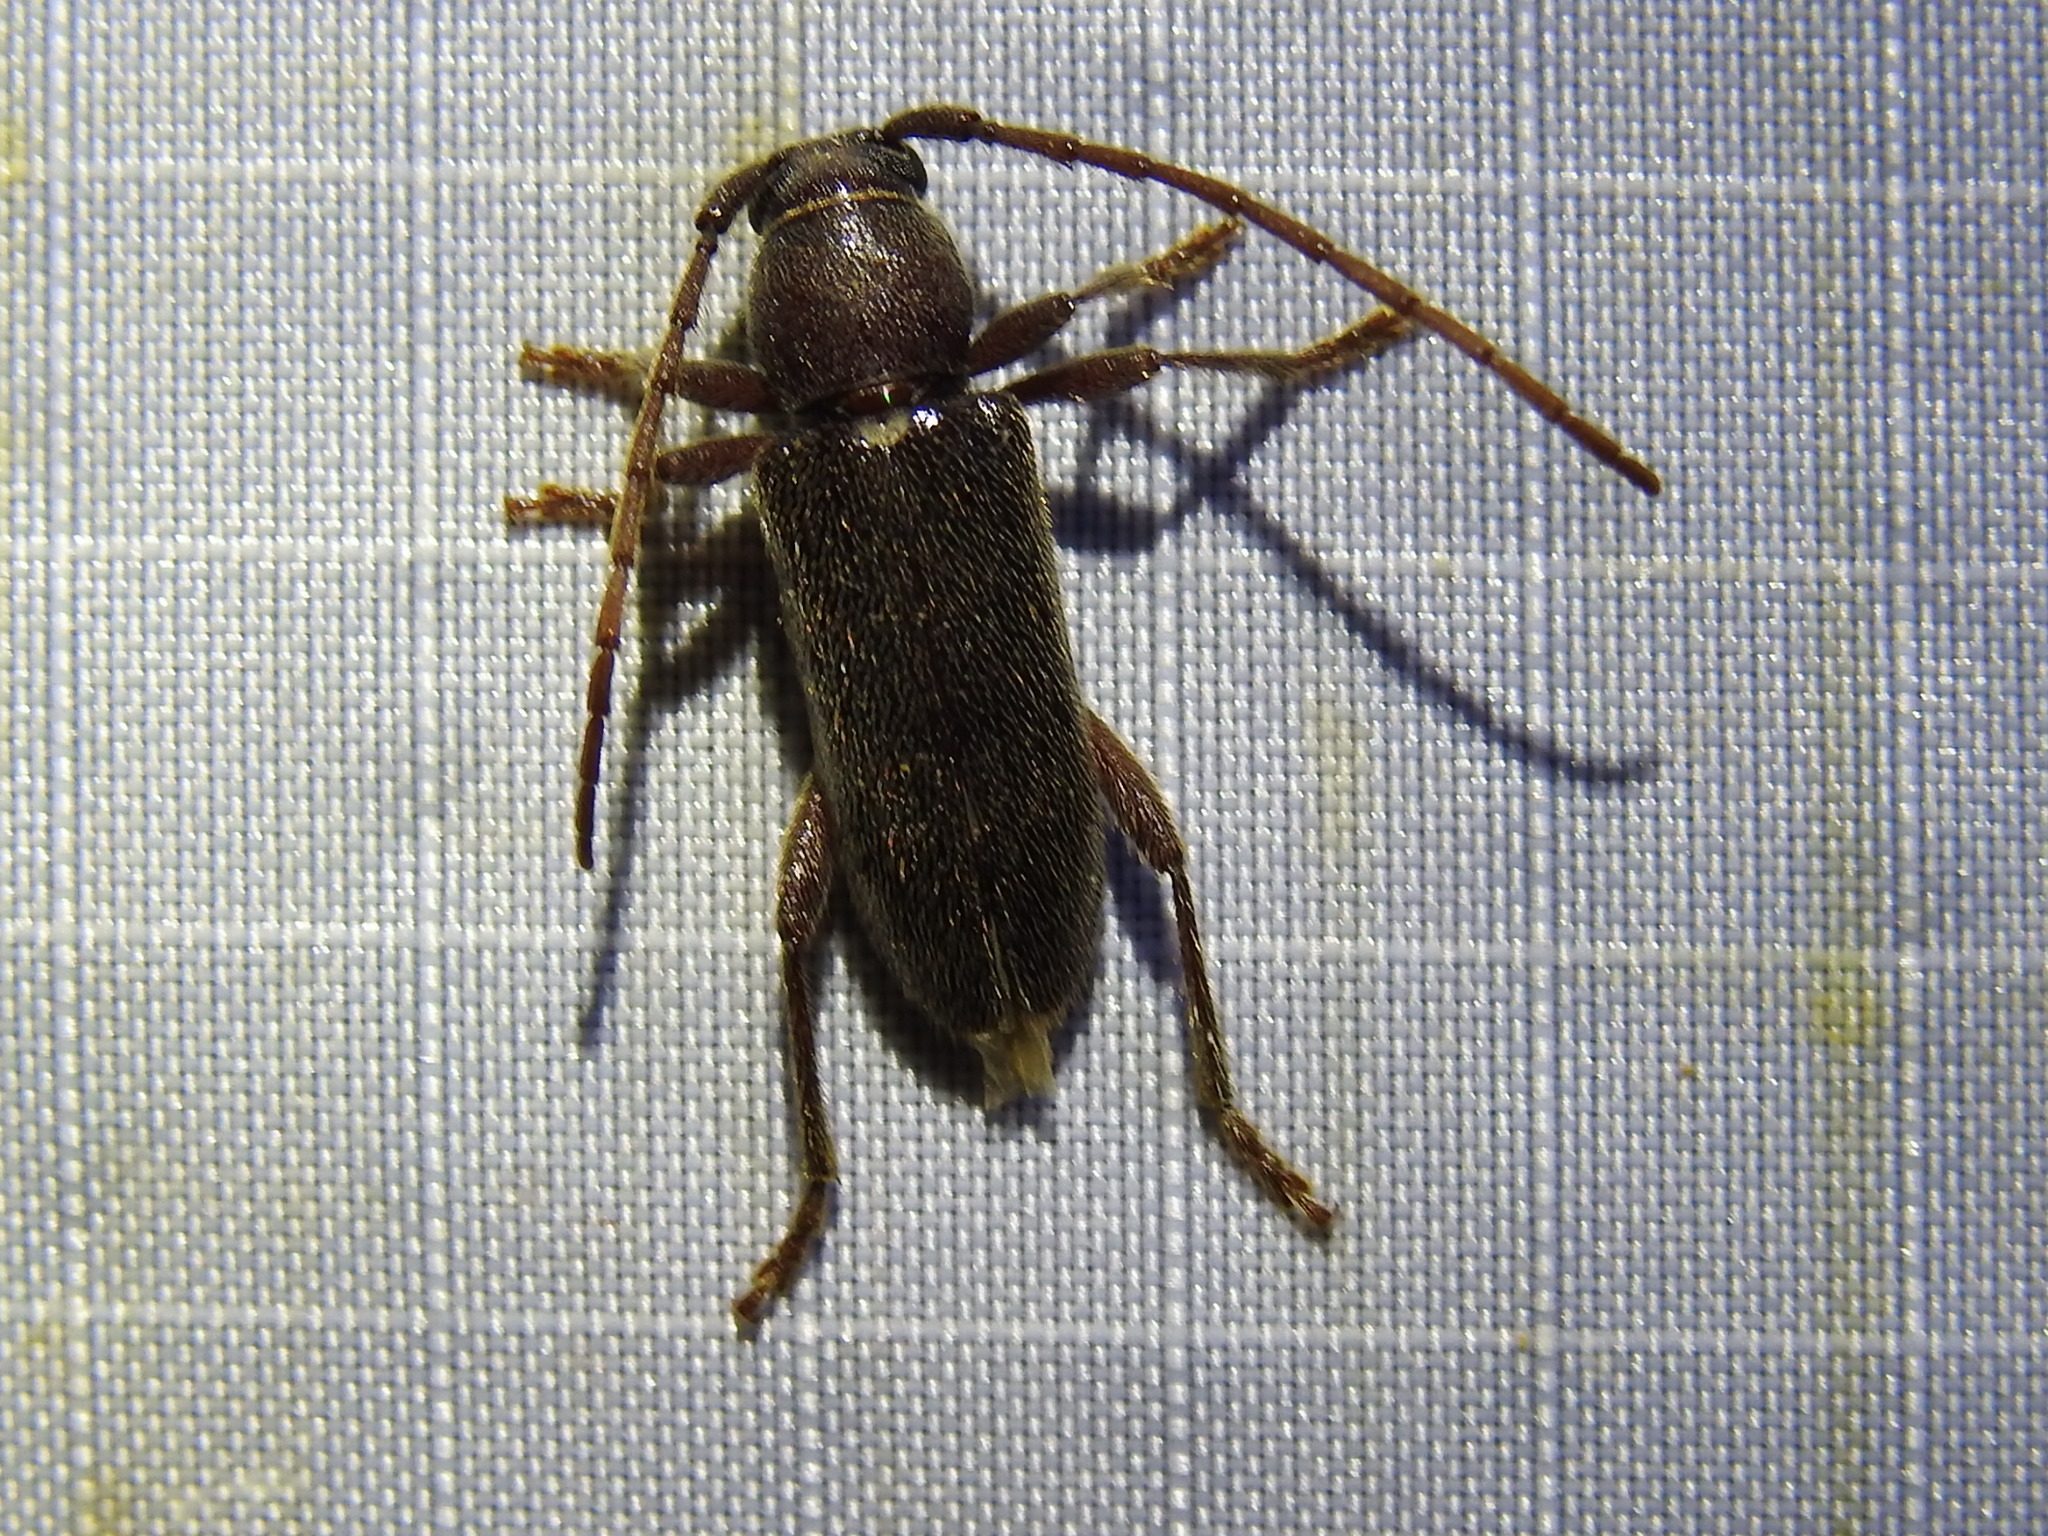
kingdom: Animalia
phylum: Arthropoda
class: Insecta
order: Coleoptera
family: Cerambycidae
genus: Anelaphus
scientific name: Anelaphus moestus
